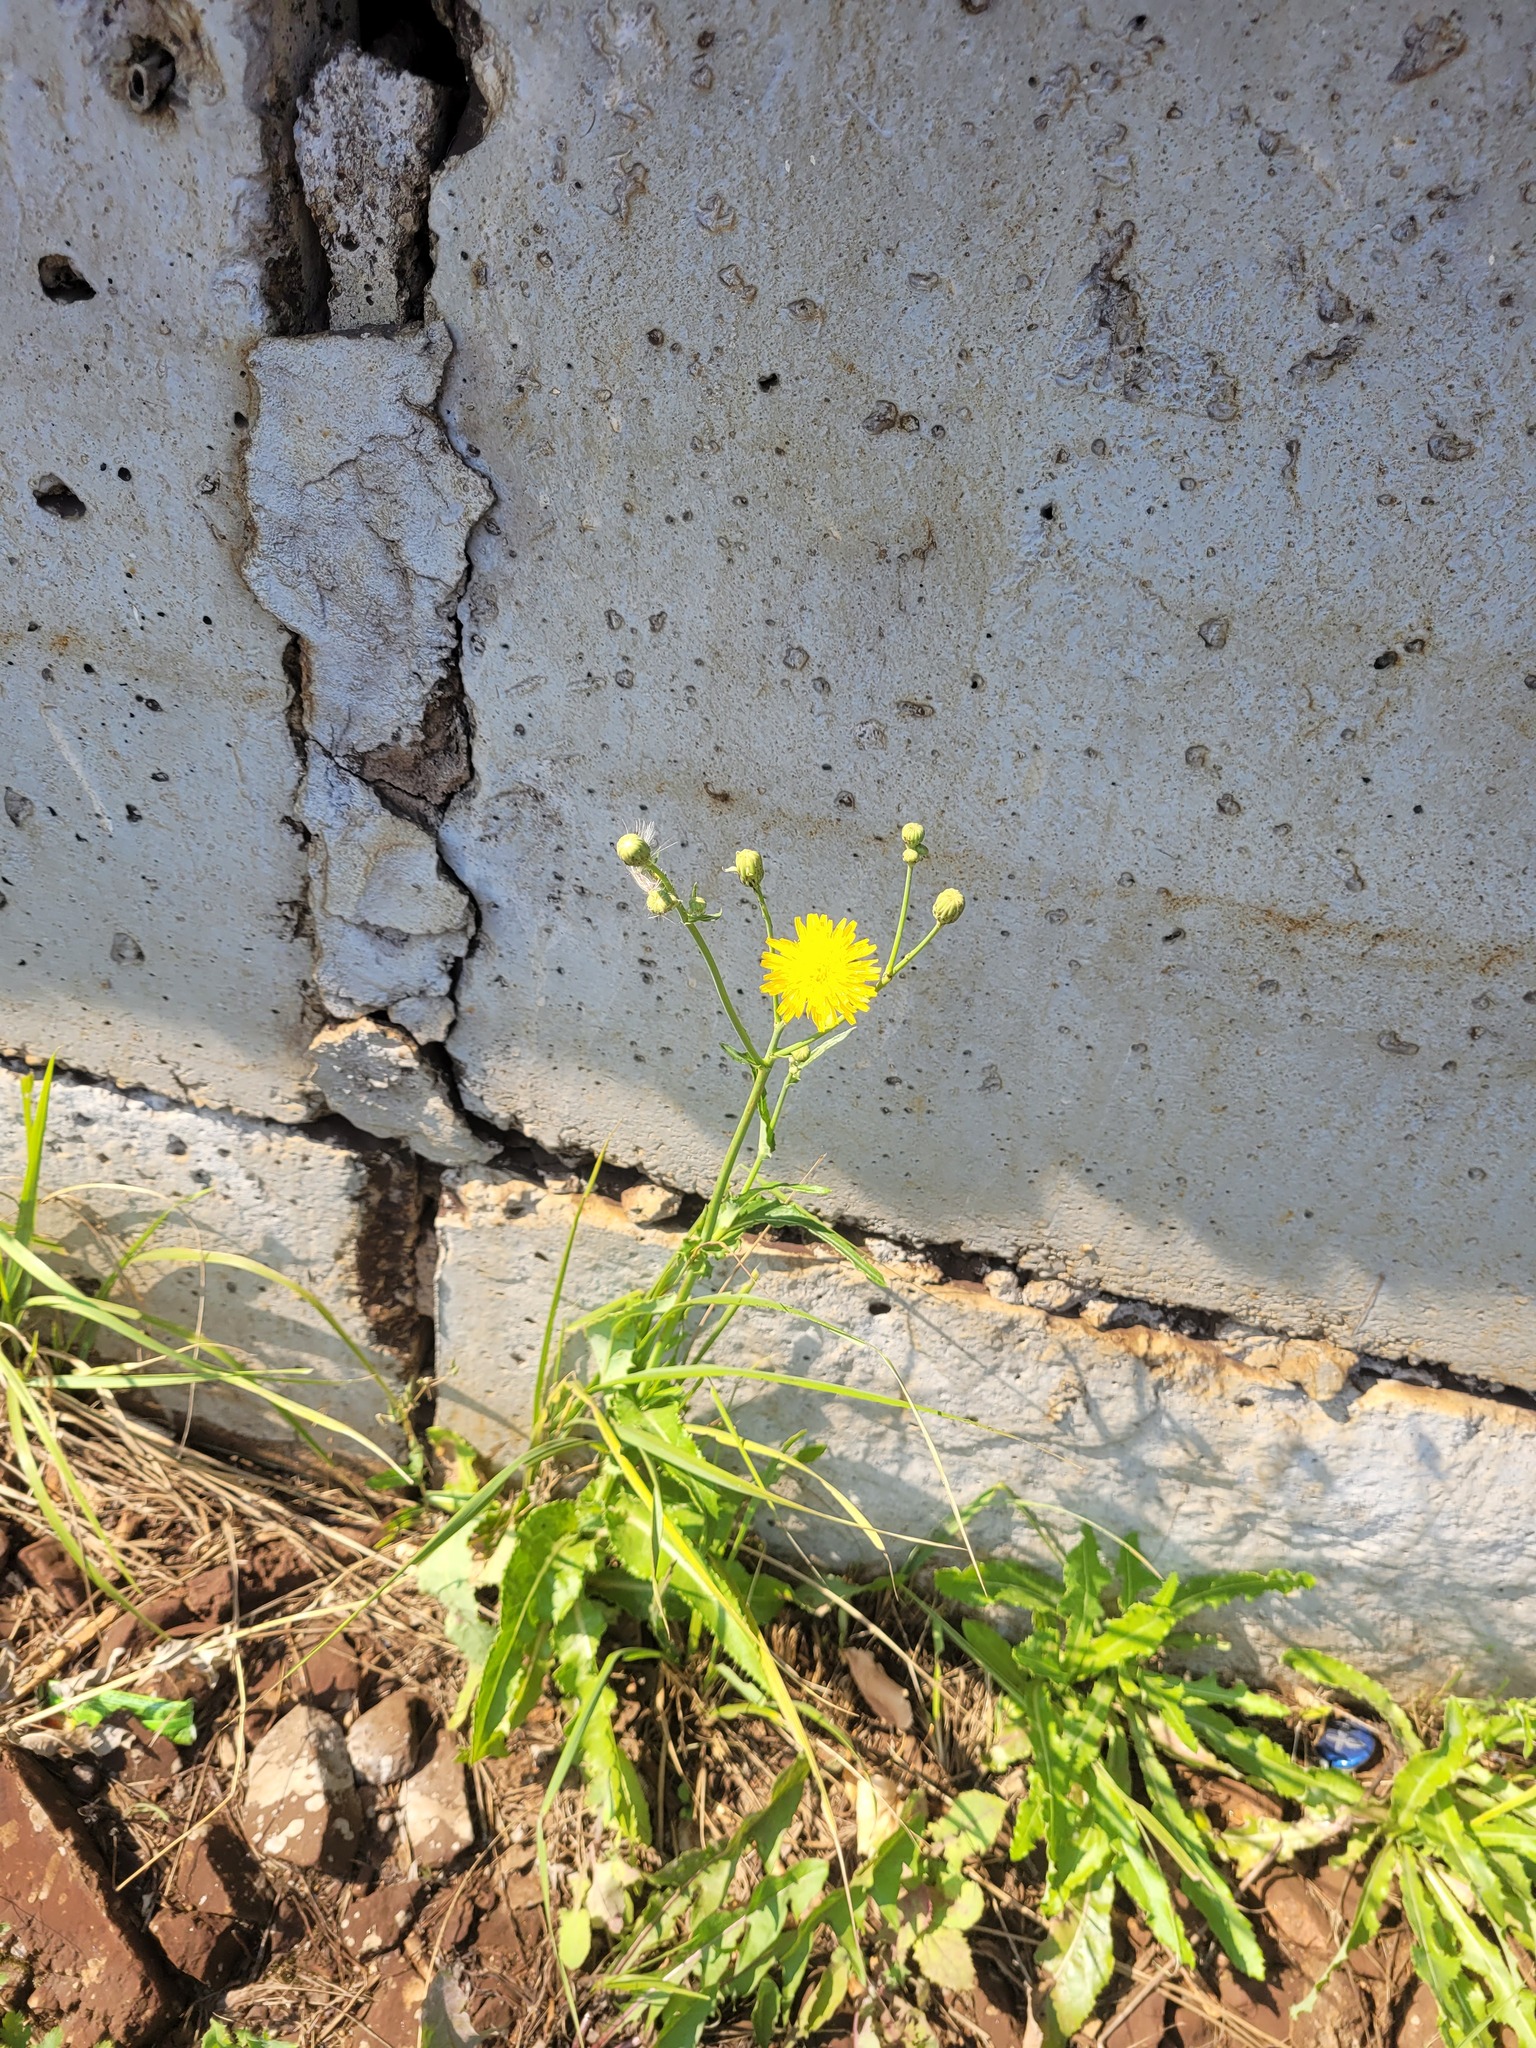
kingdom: Plantae
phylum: Tracheophyta
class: Magnoliopsida
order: Asterales
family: Asteraceae
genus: Sonchus
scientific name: Sonchus arvensis
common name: Perennial sow-thistle
